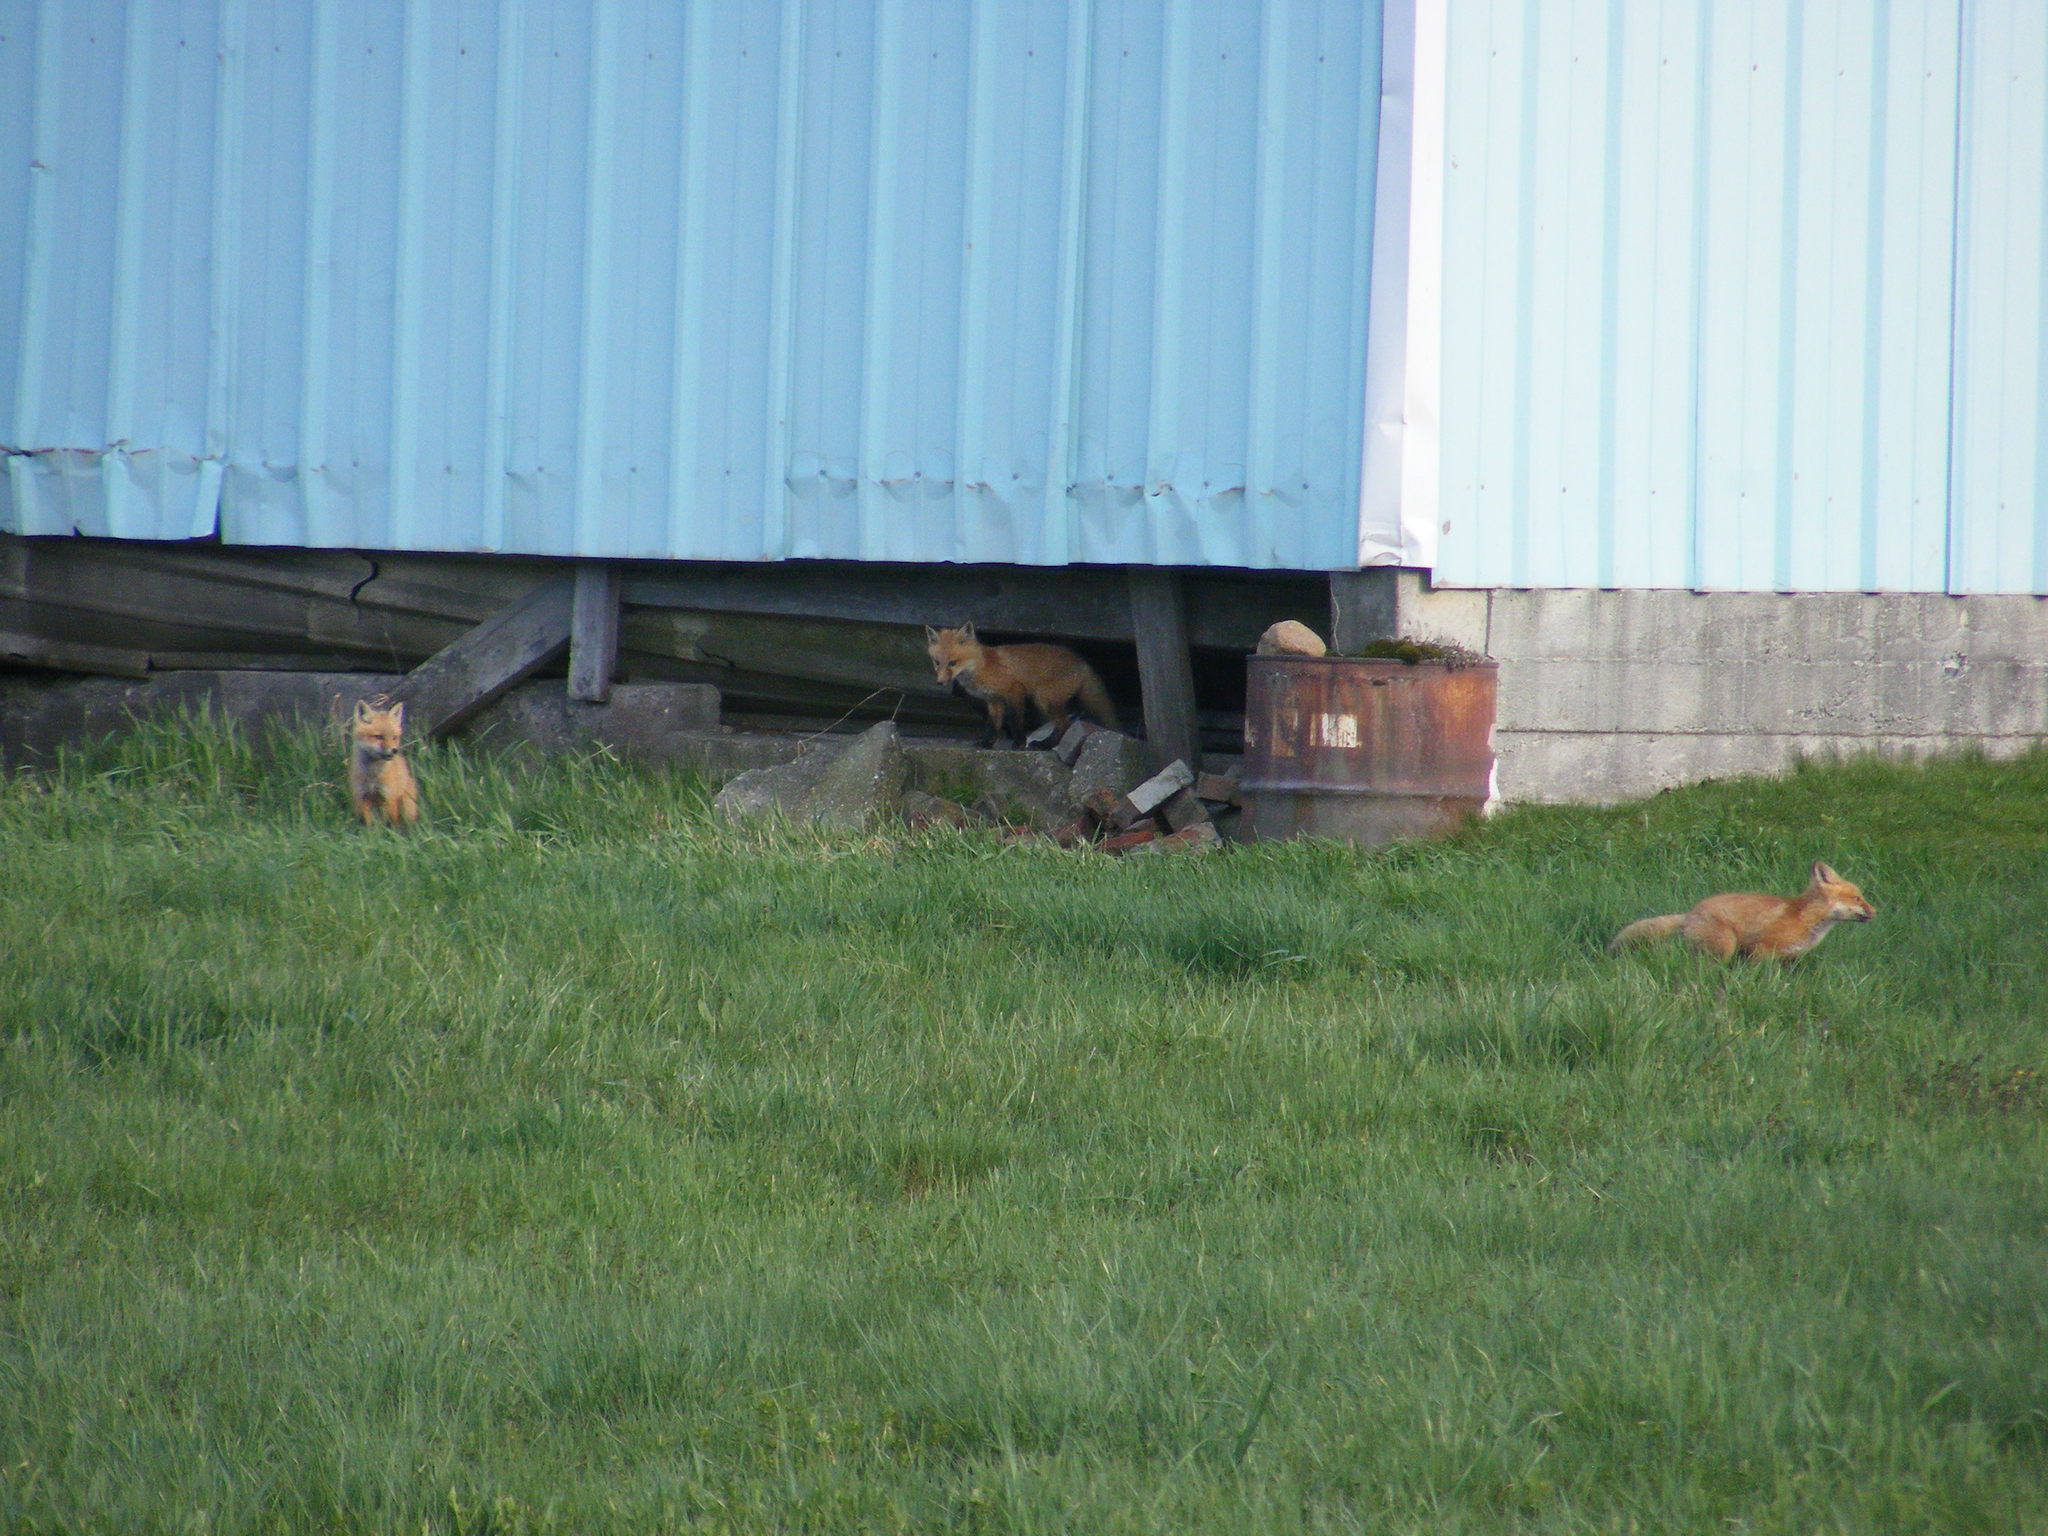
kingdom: Animalia
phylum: Chordata
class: Mammalia
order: Carnivora
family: Canidae
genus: Vulpes
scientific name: Vulpes vulpes
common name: Red fox
